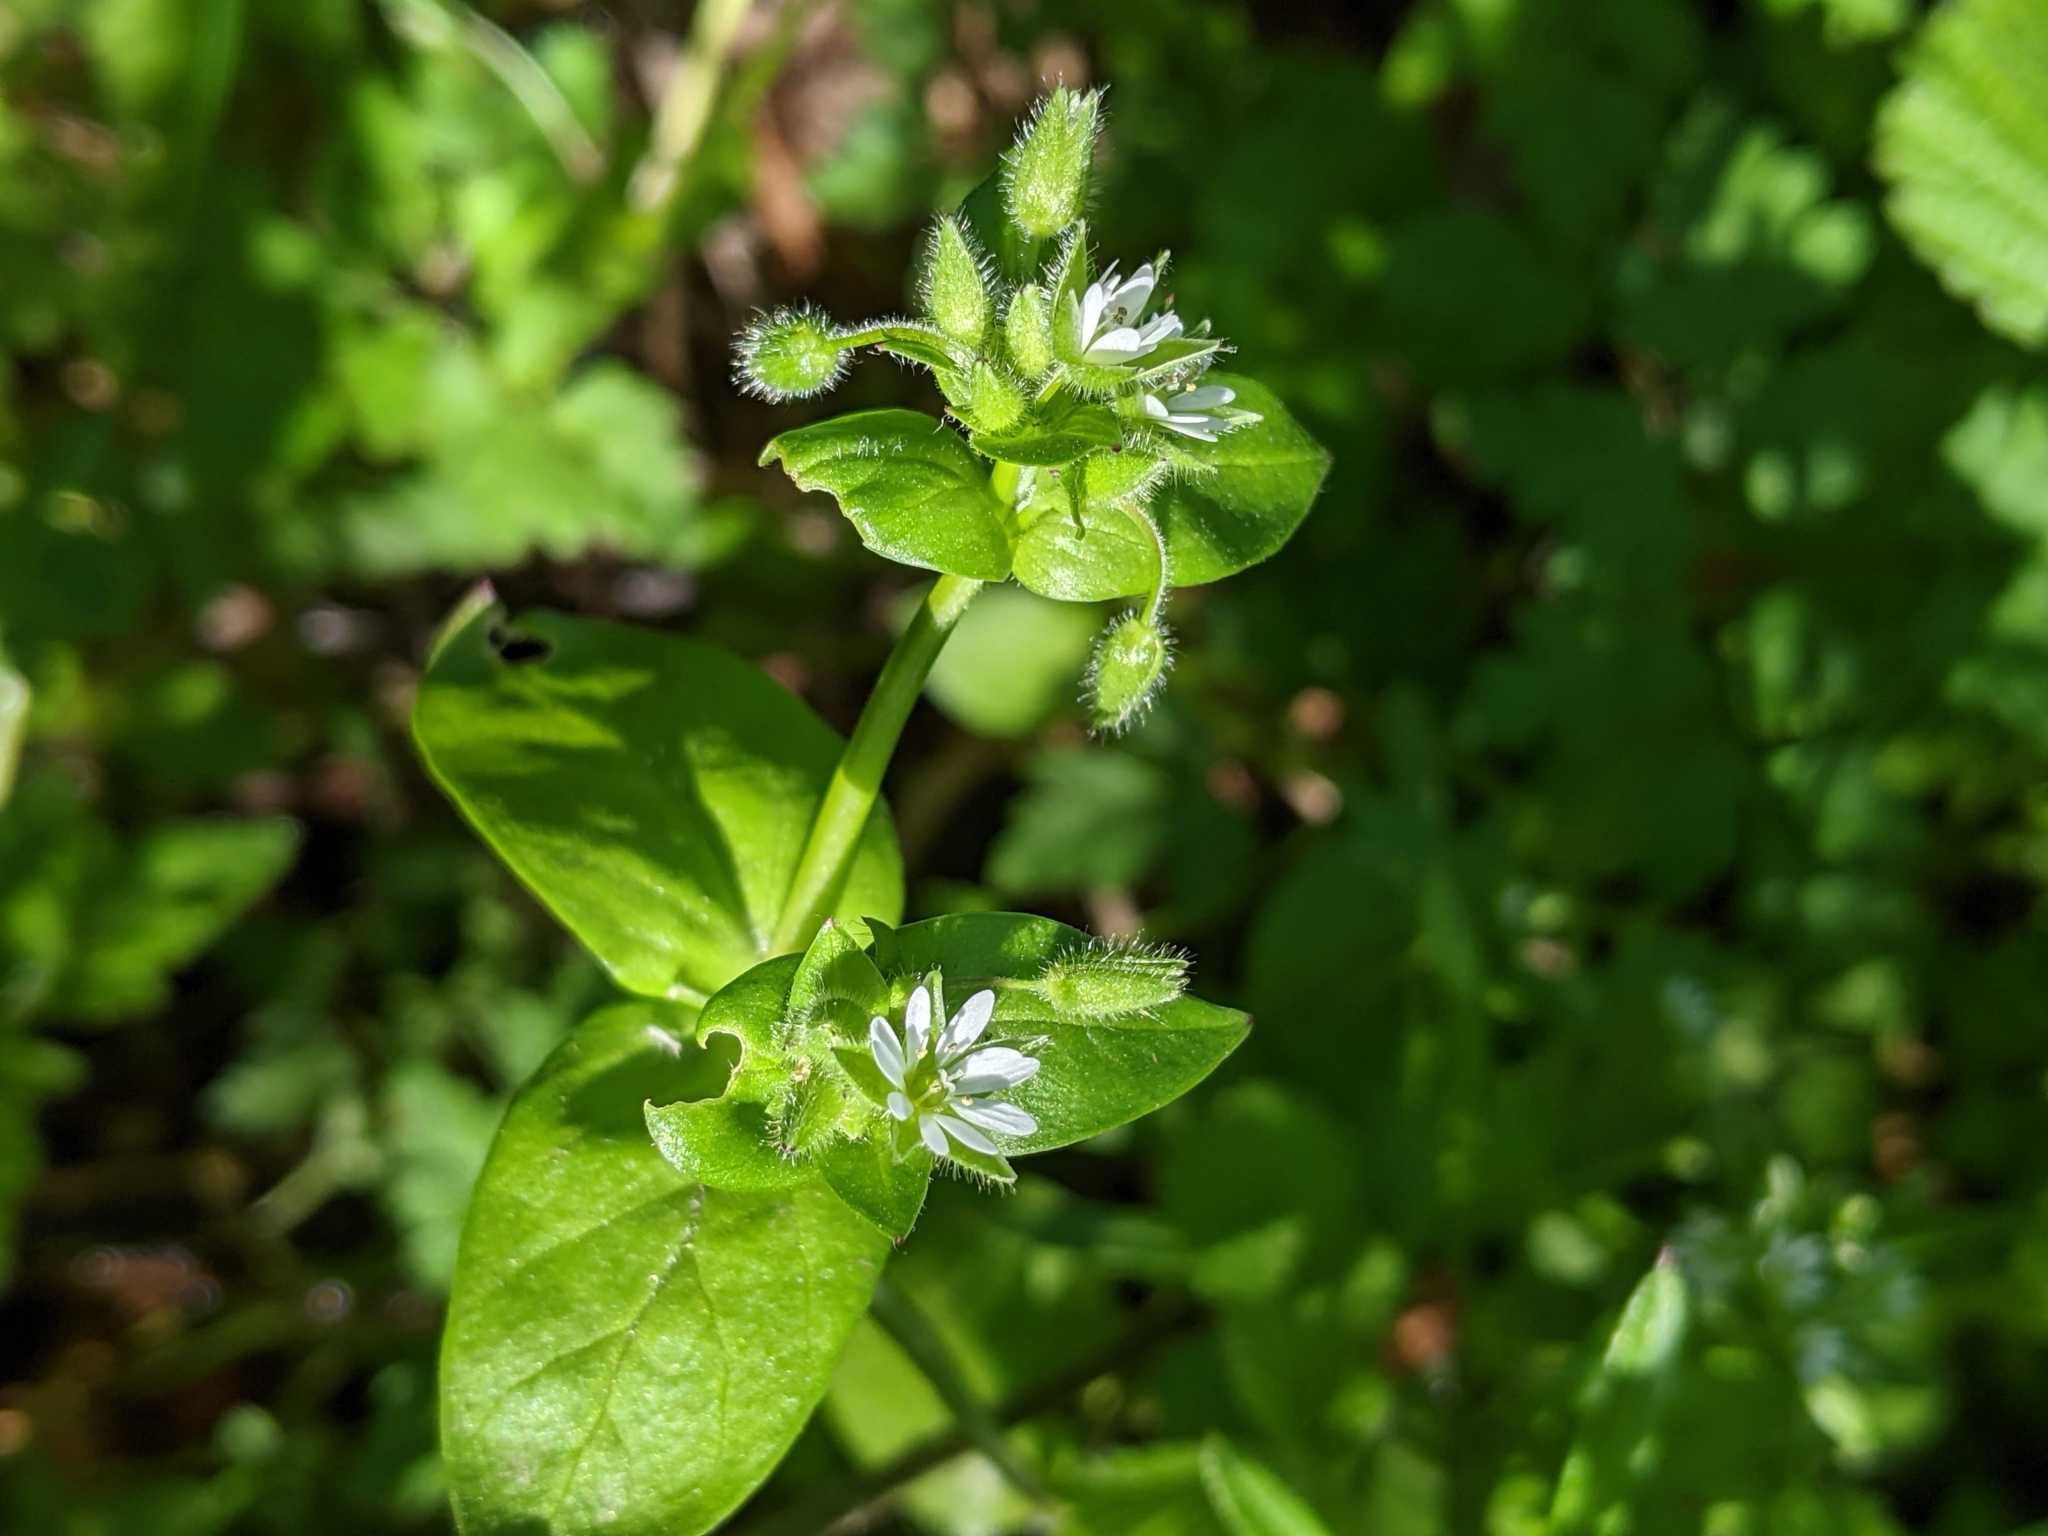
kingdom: Plantae
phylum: Tracheophyta
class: Magnoliopsida
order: Caryophyllales
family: Caryophyllaceae
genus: Stellaria
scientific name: Stellaria media
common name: Common chickweed
